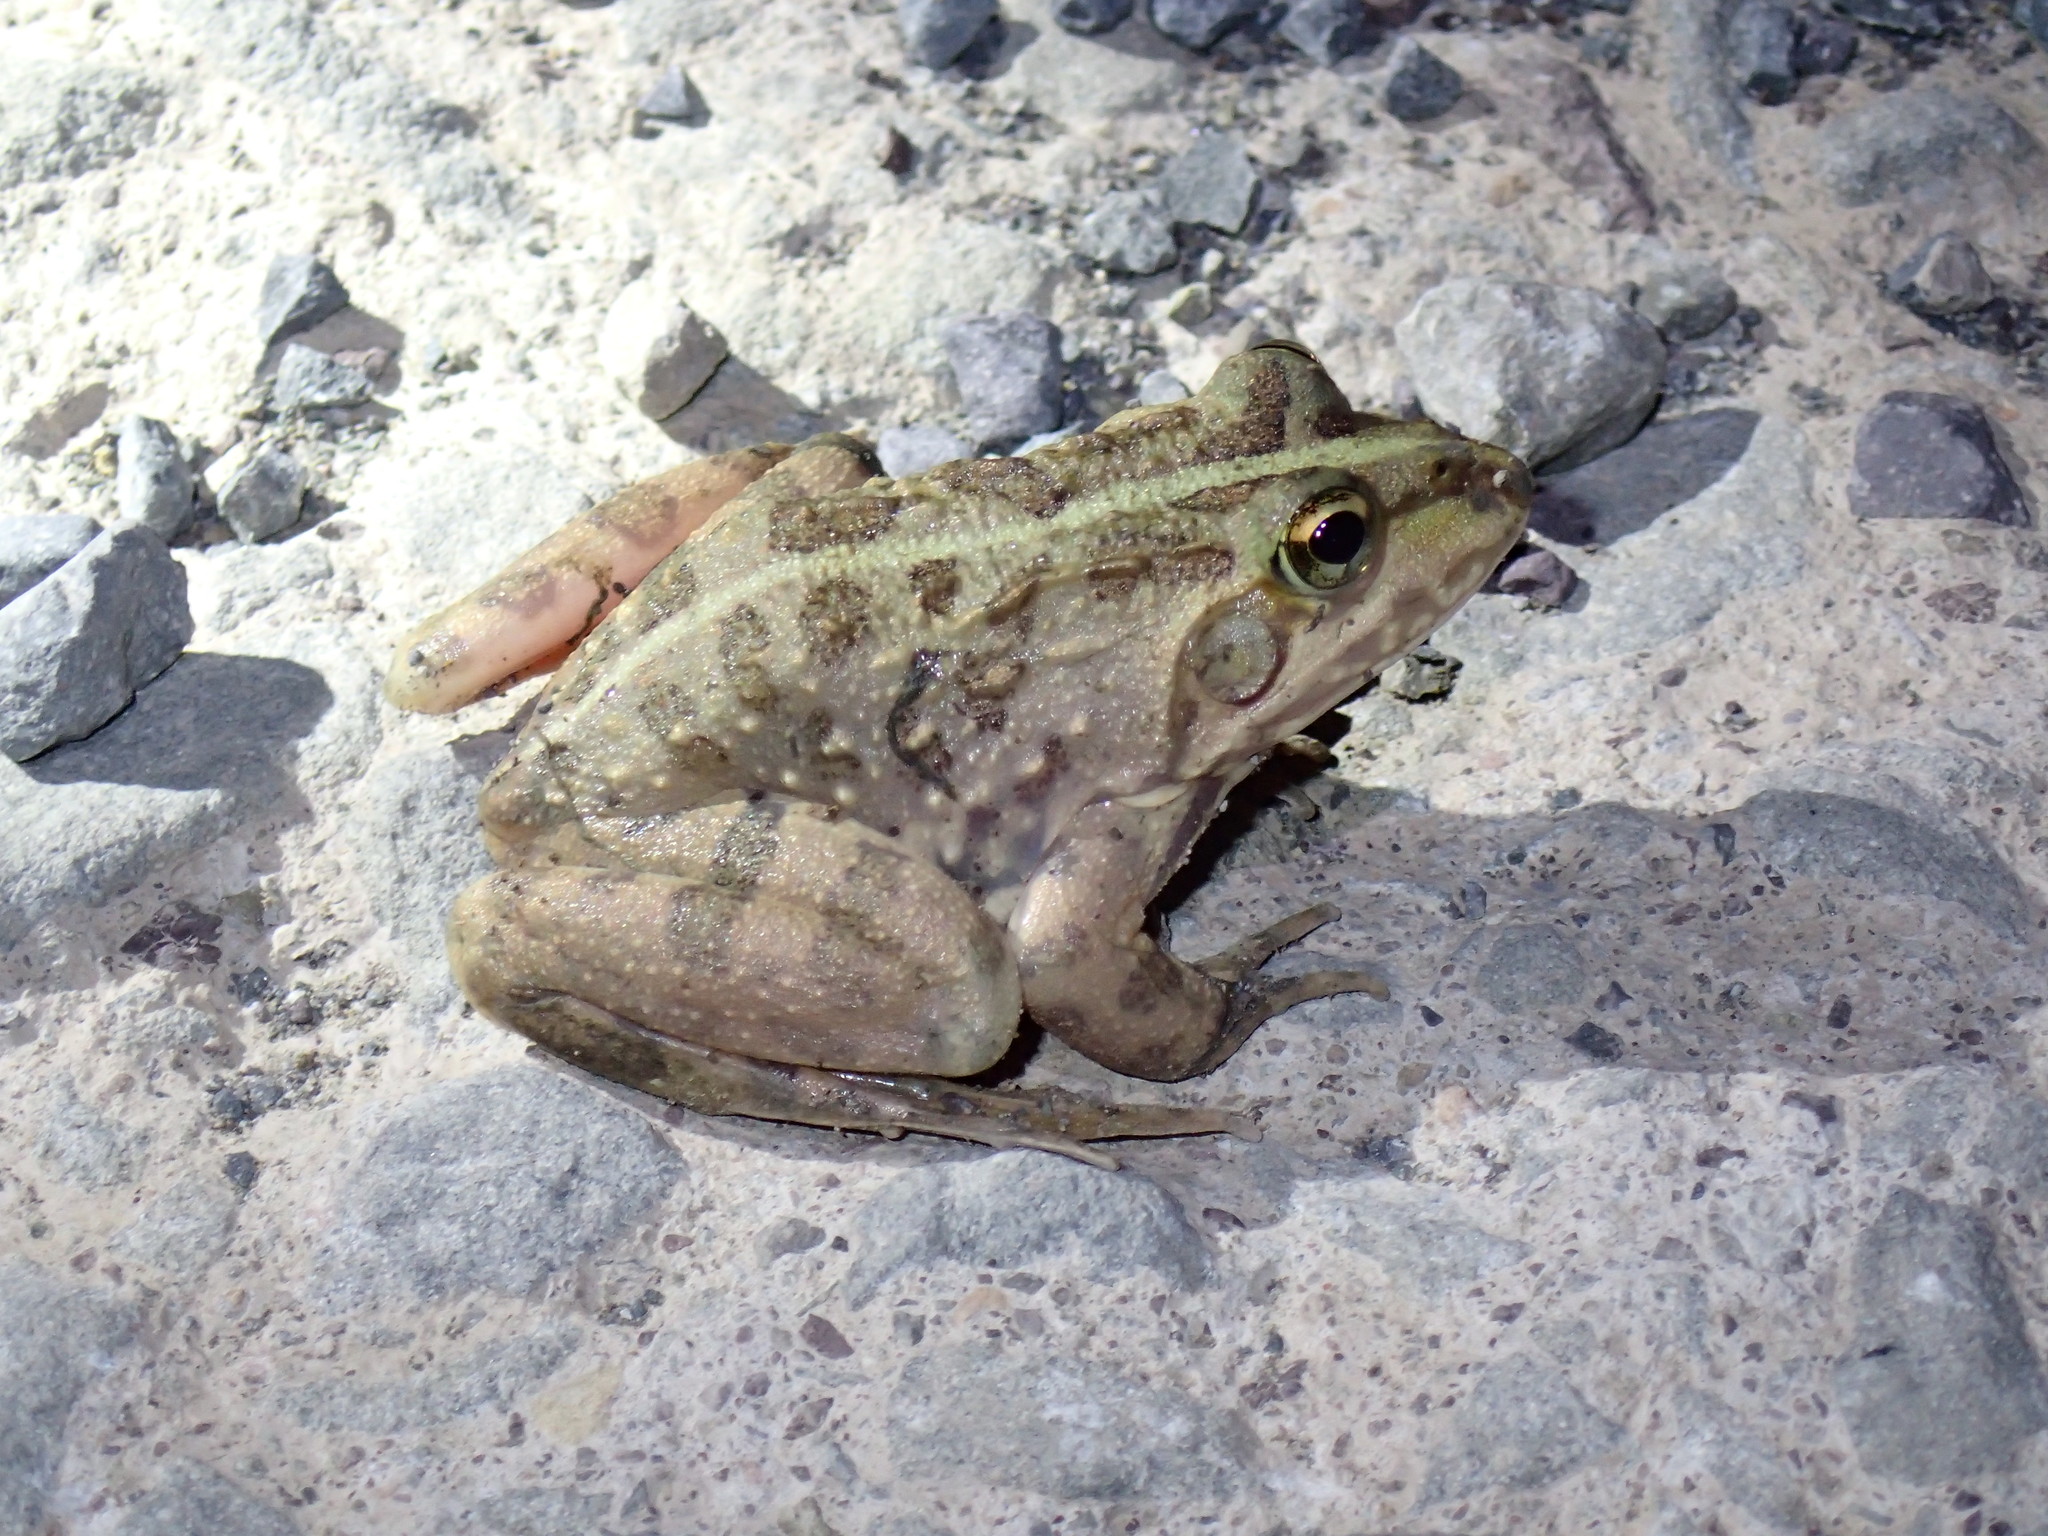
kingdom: Animalia
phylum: Chordata
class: Amphibia
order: Anura
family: Pyxicephalidae
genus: Amietia
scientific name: Amietia poyntoni
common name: Poynton's river frog
